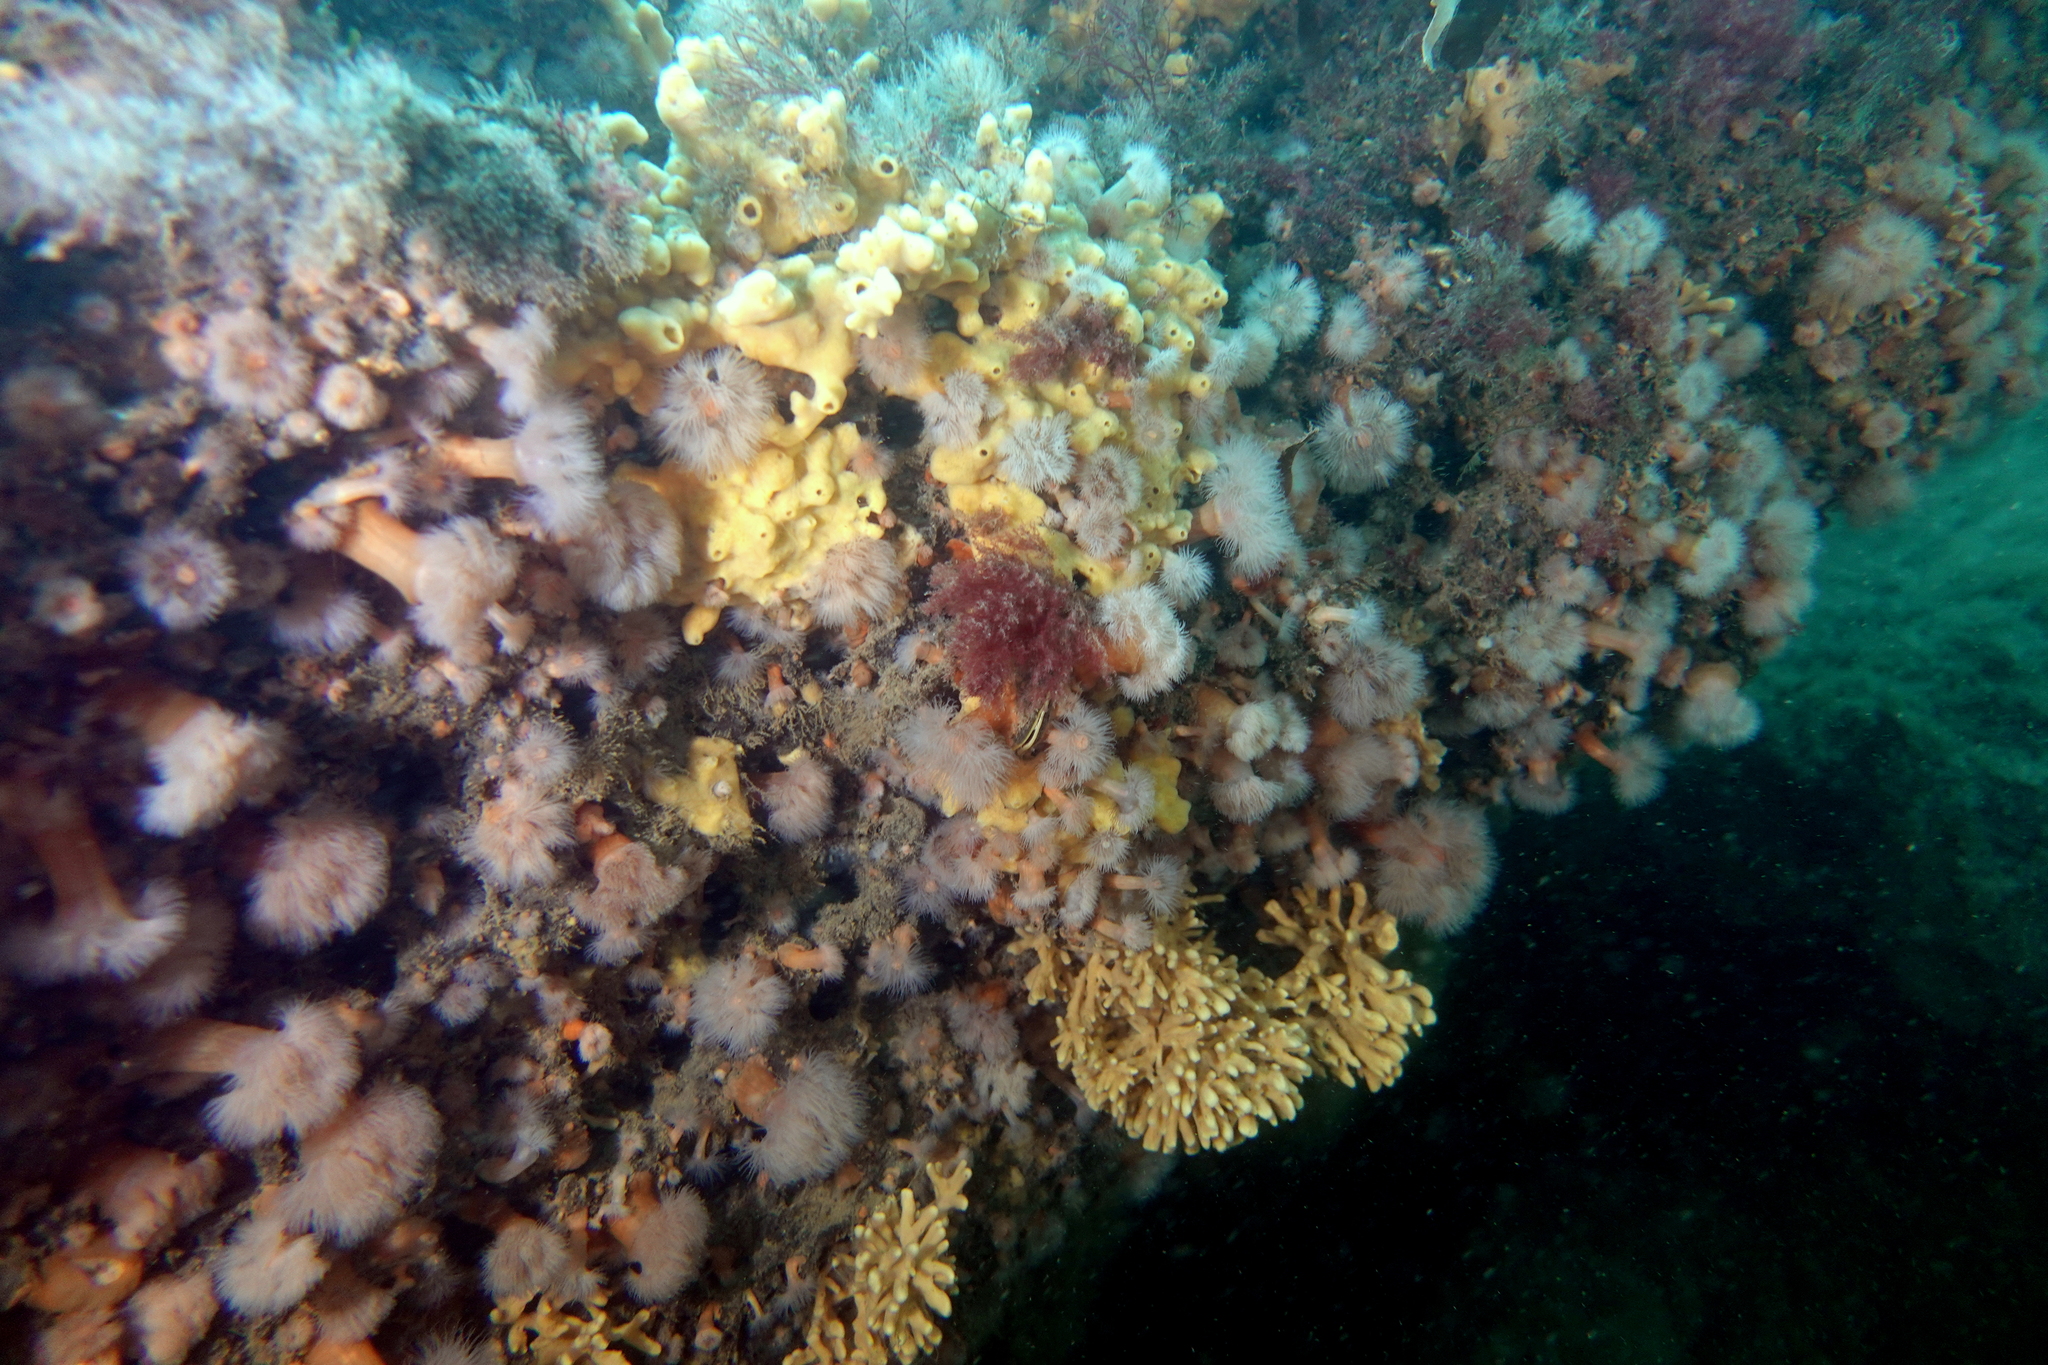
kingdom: Animalia
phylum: Cnidaria
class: Anthozoa
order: Actiniaria
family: Metridiidae
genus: Metridium
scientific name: Metridium senile
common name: Clonal plumose anemone
